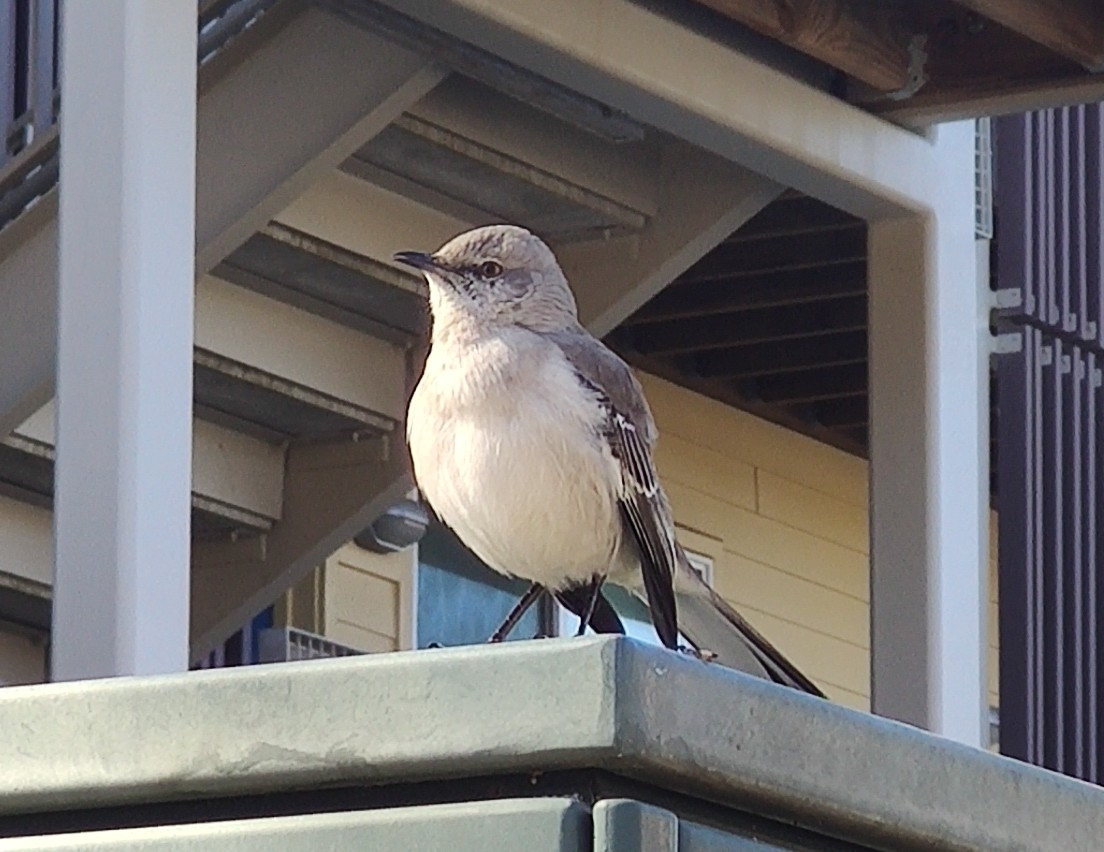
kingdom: Animalia
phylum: Chordata
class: Aves
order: Passeriformes
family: Mimidae
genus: Mimus
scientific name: Mimus polyglottos
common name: Northern mockingbird
